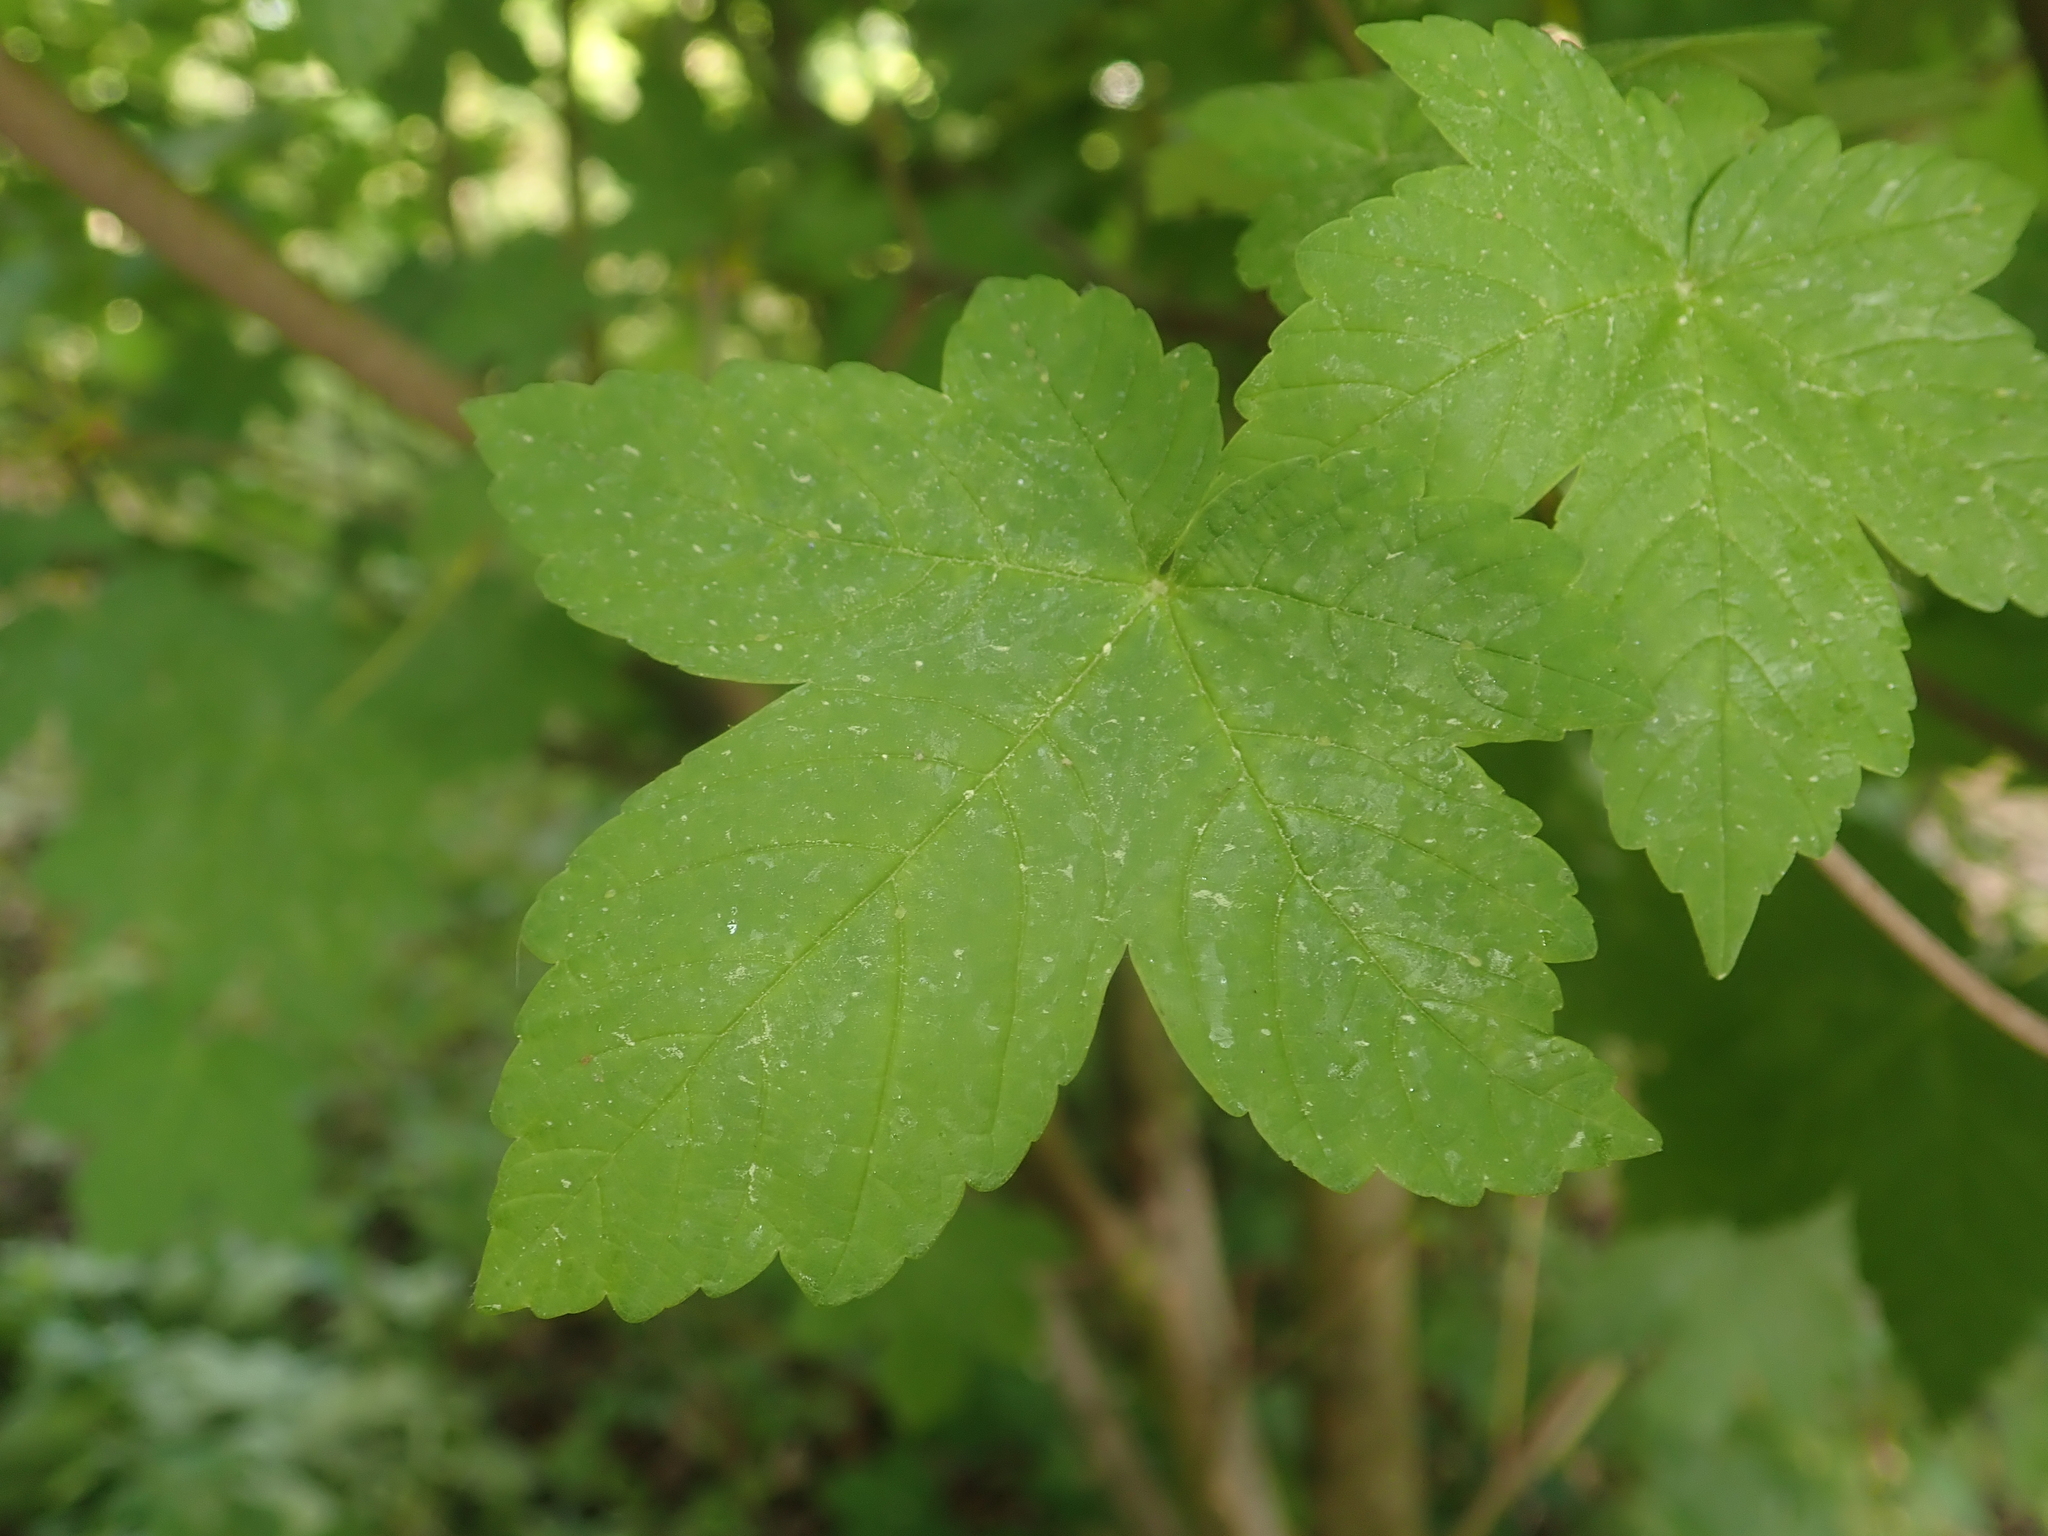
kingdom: Plantae
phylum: Tracheophyta
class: Magnoliopsida
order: Sapindales
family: Sapindaceae
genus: Acer
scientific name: Acer pseudoplatanus
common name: Sycamore
